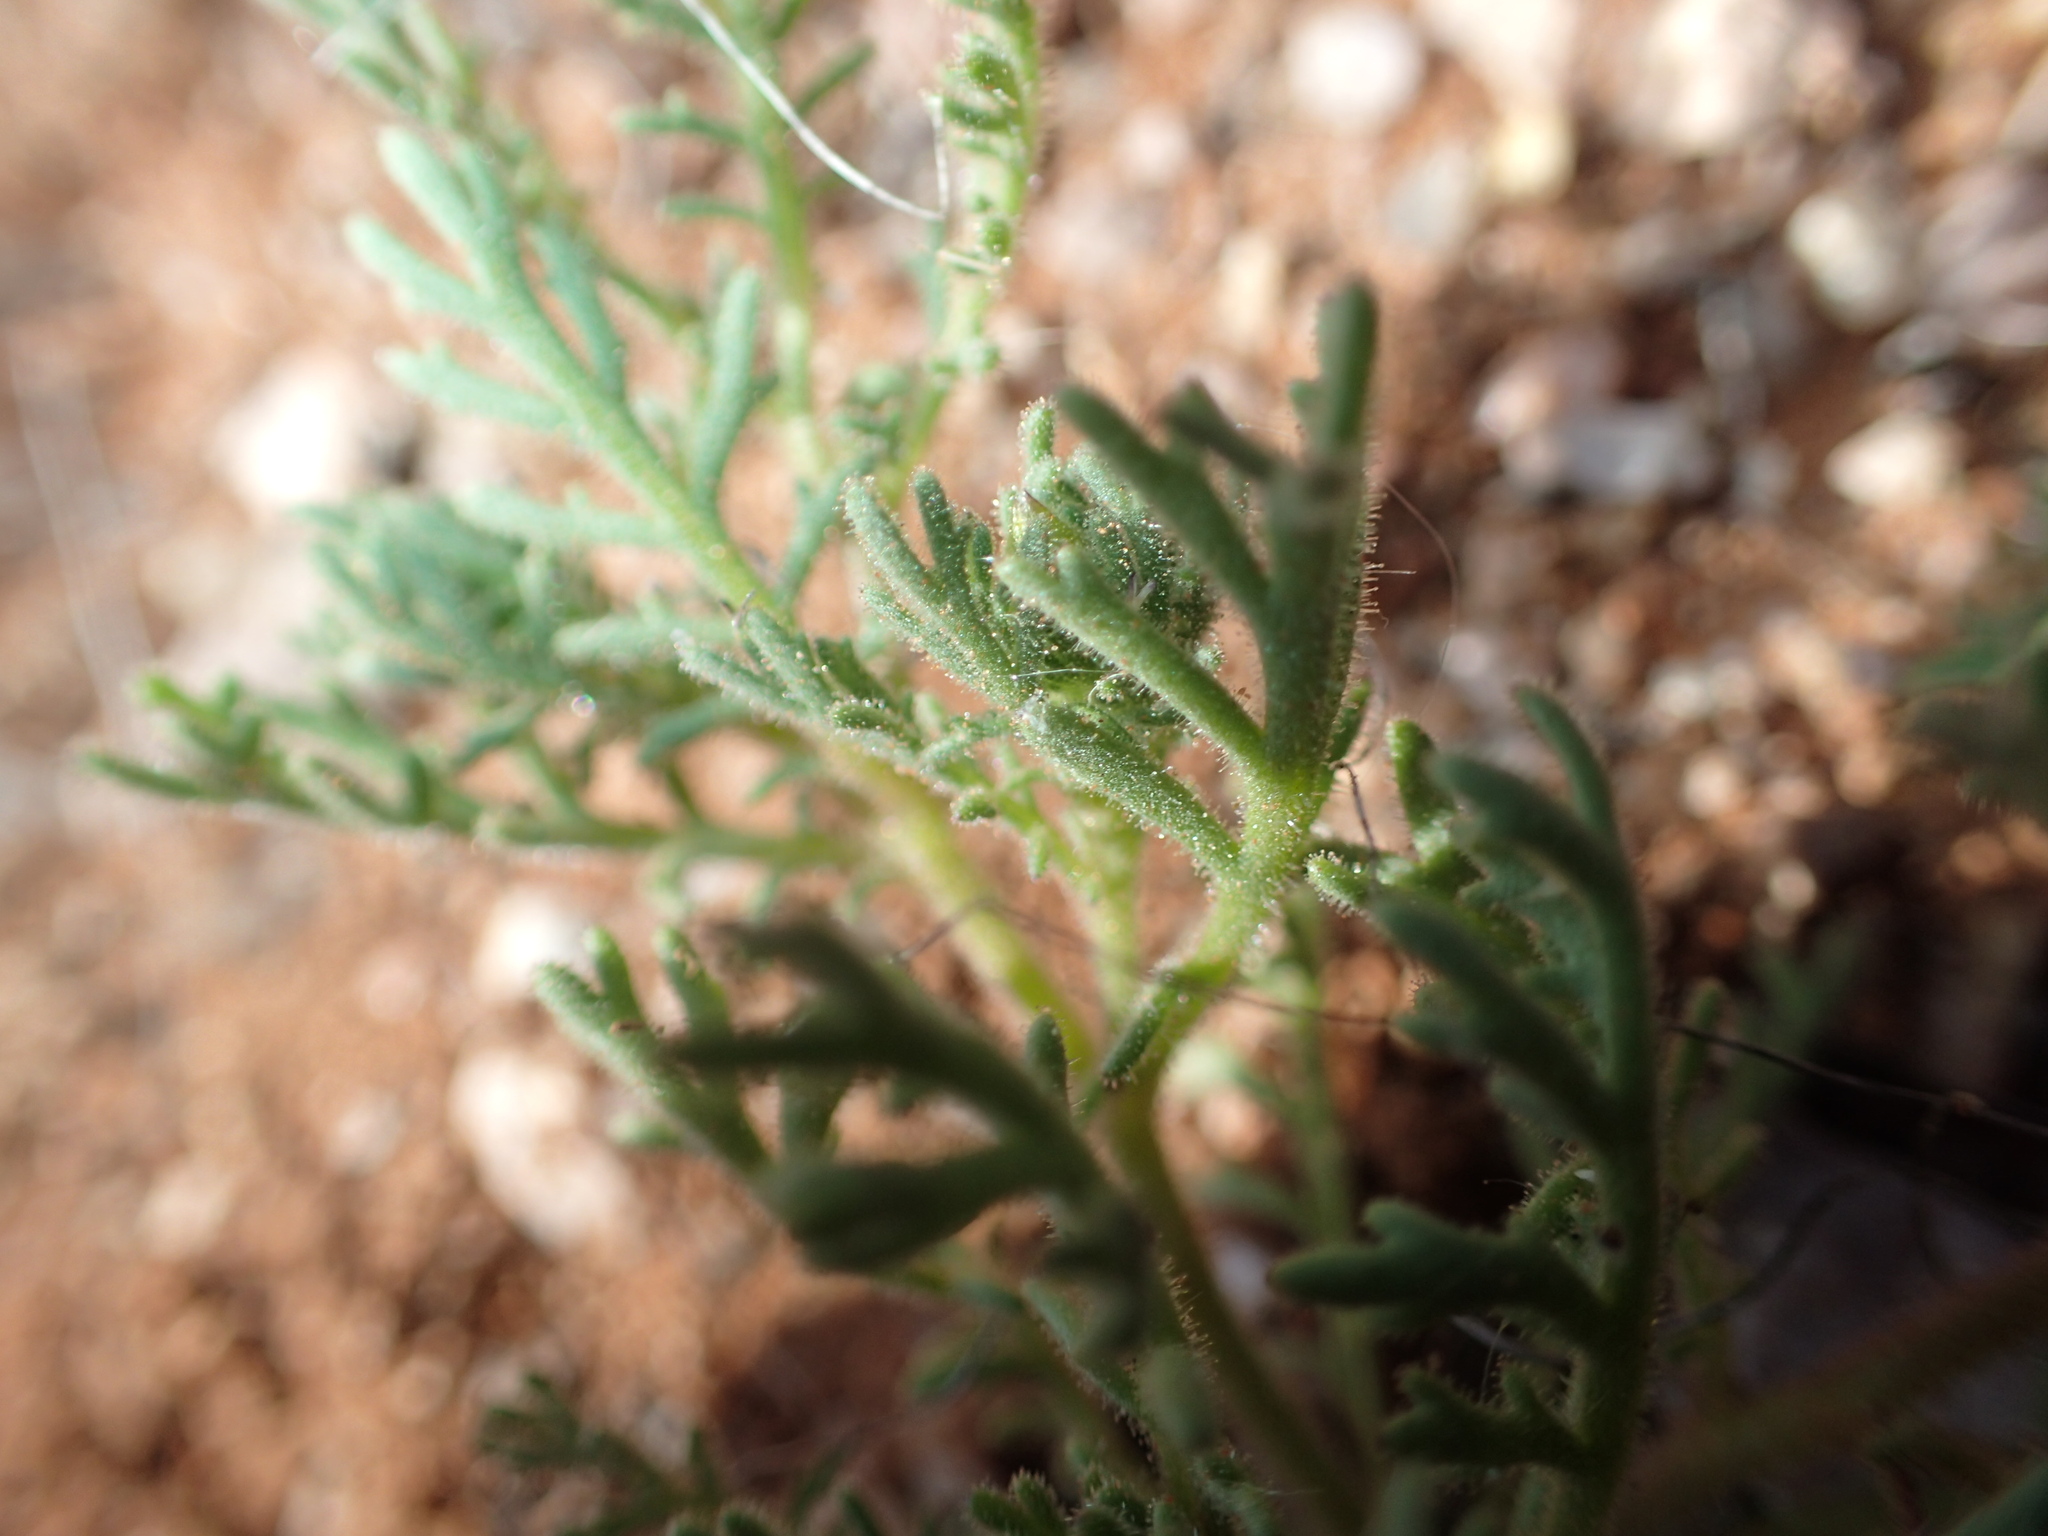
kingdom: Plantae
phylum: Tracheophyta
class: Magnoliopsida
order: Asterales
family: Asteraceae
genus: Dimorphotheca
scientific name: Dimorphotheca pinnata
